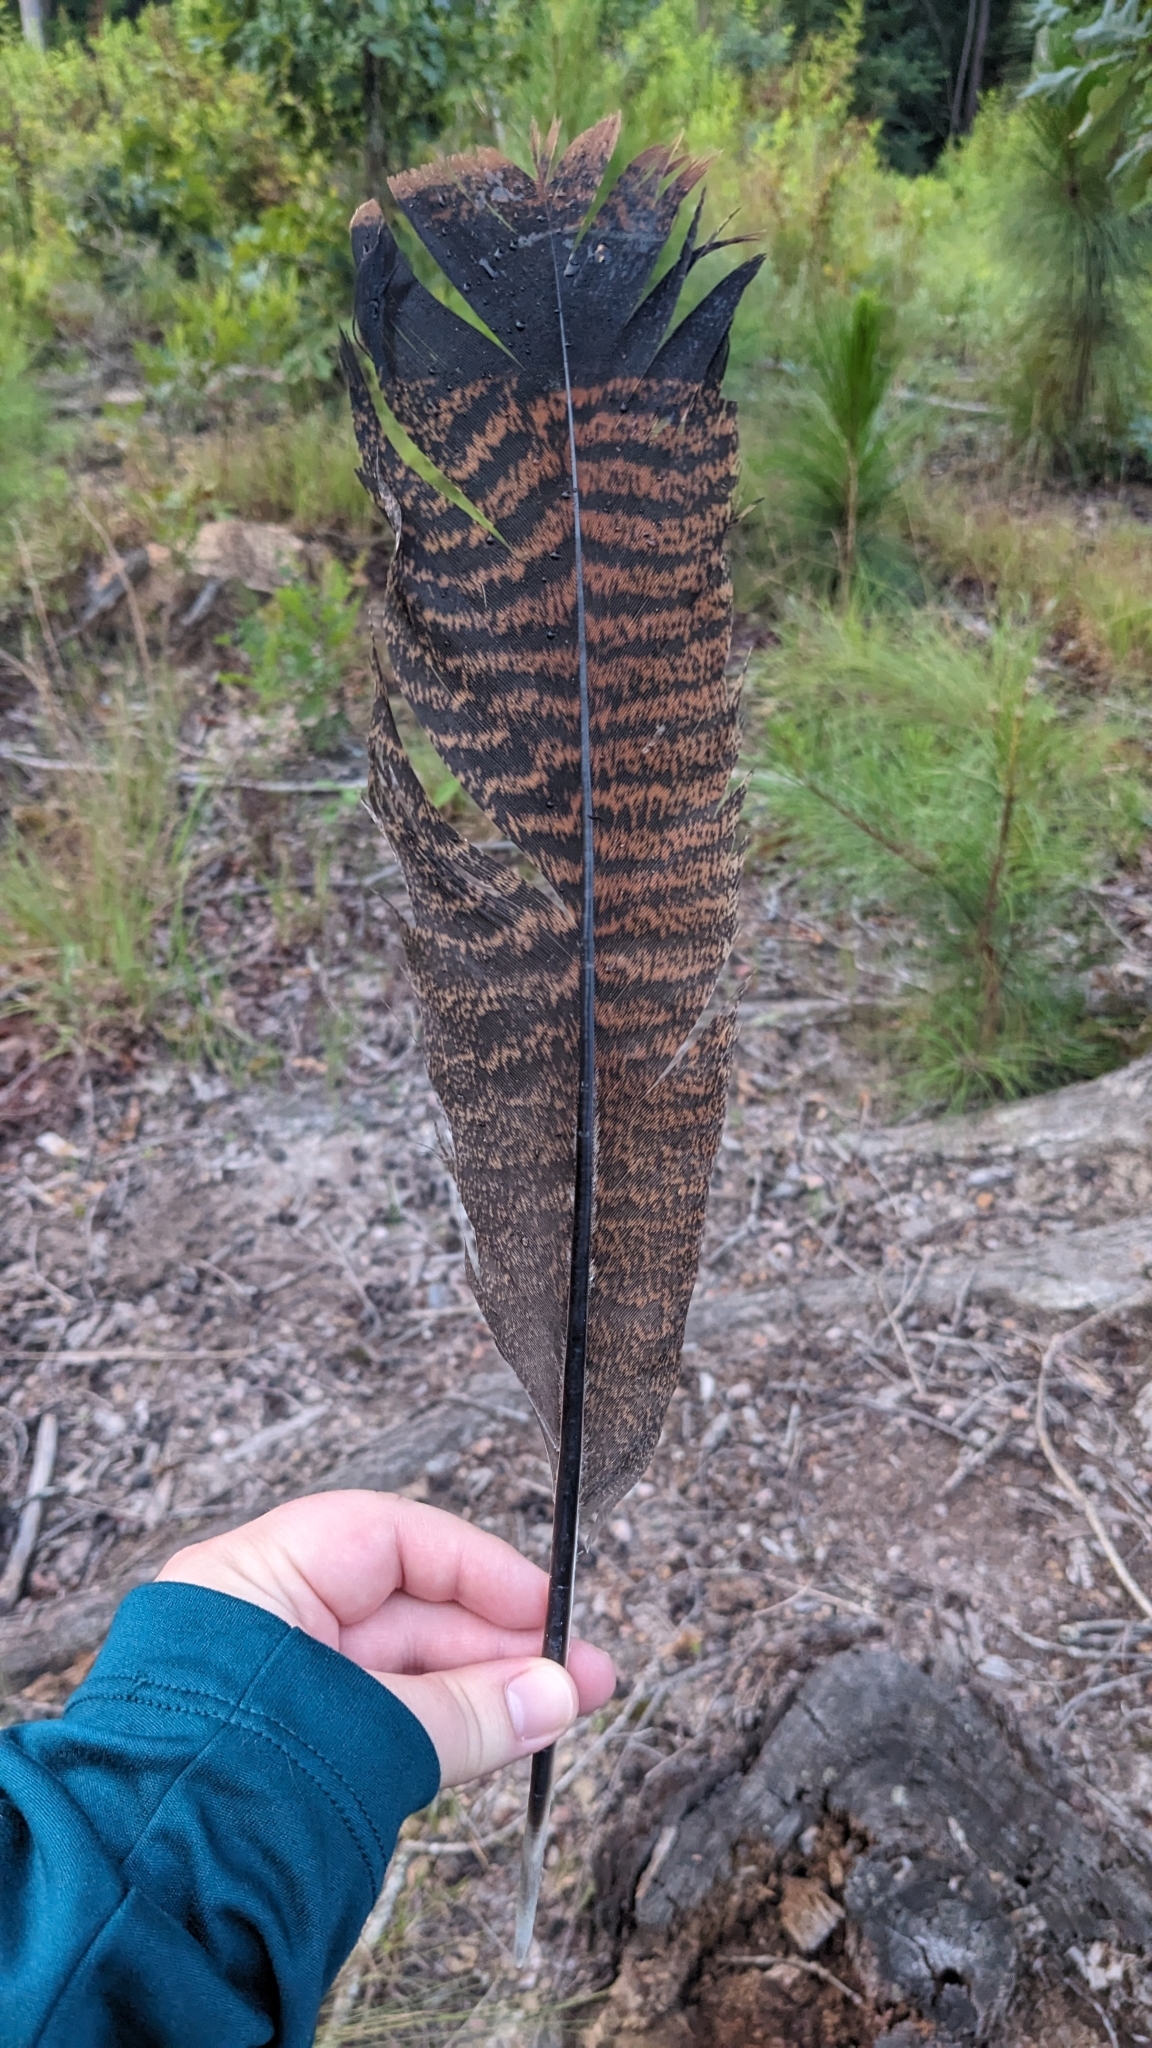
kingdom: Animalia
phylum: Chordata
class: Aves
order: Galliformes
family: Phasianidae
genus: Meleagris
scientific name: Meleagris gallopavo
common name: Wild turkey
